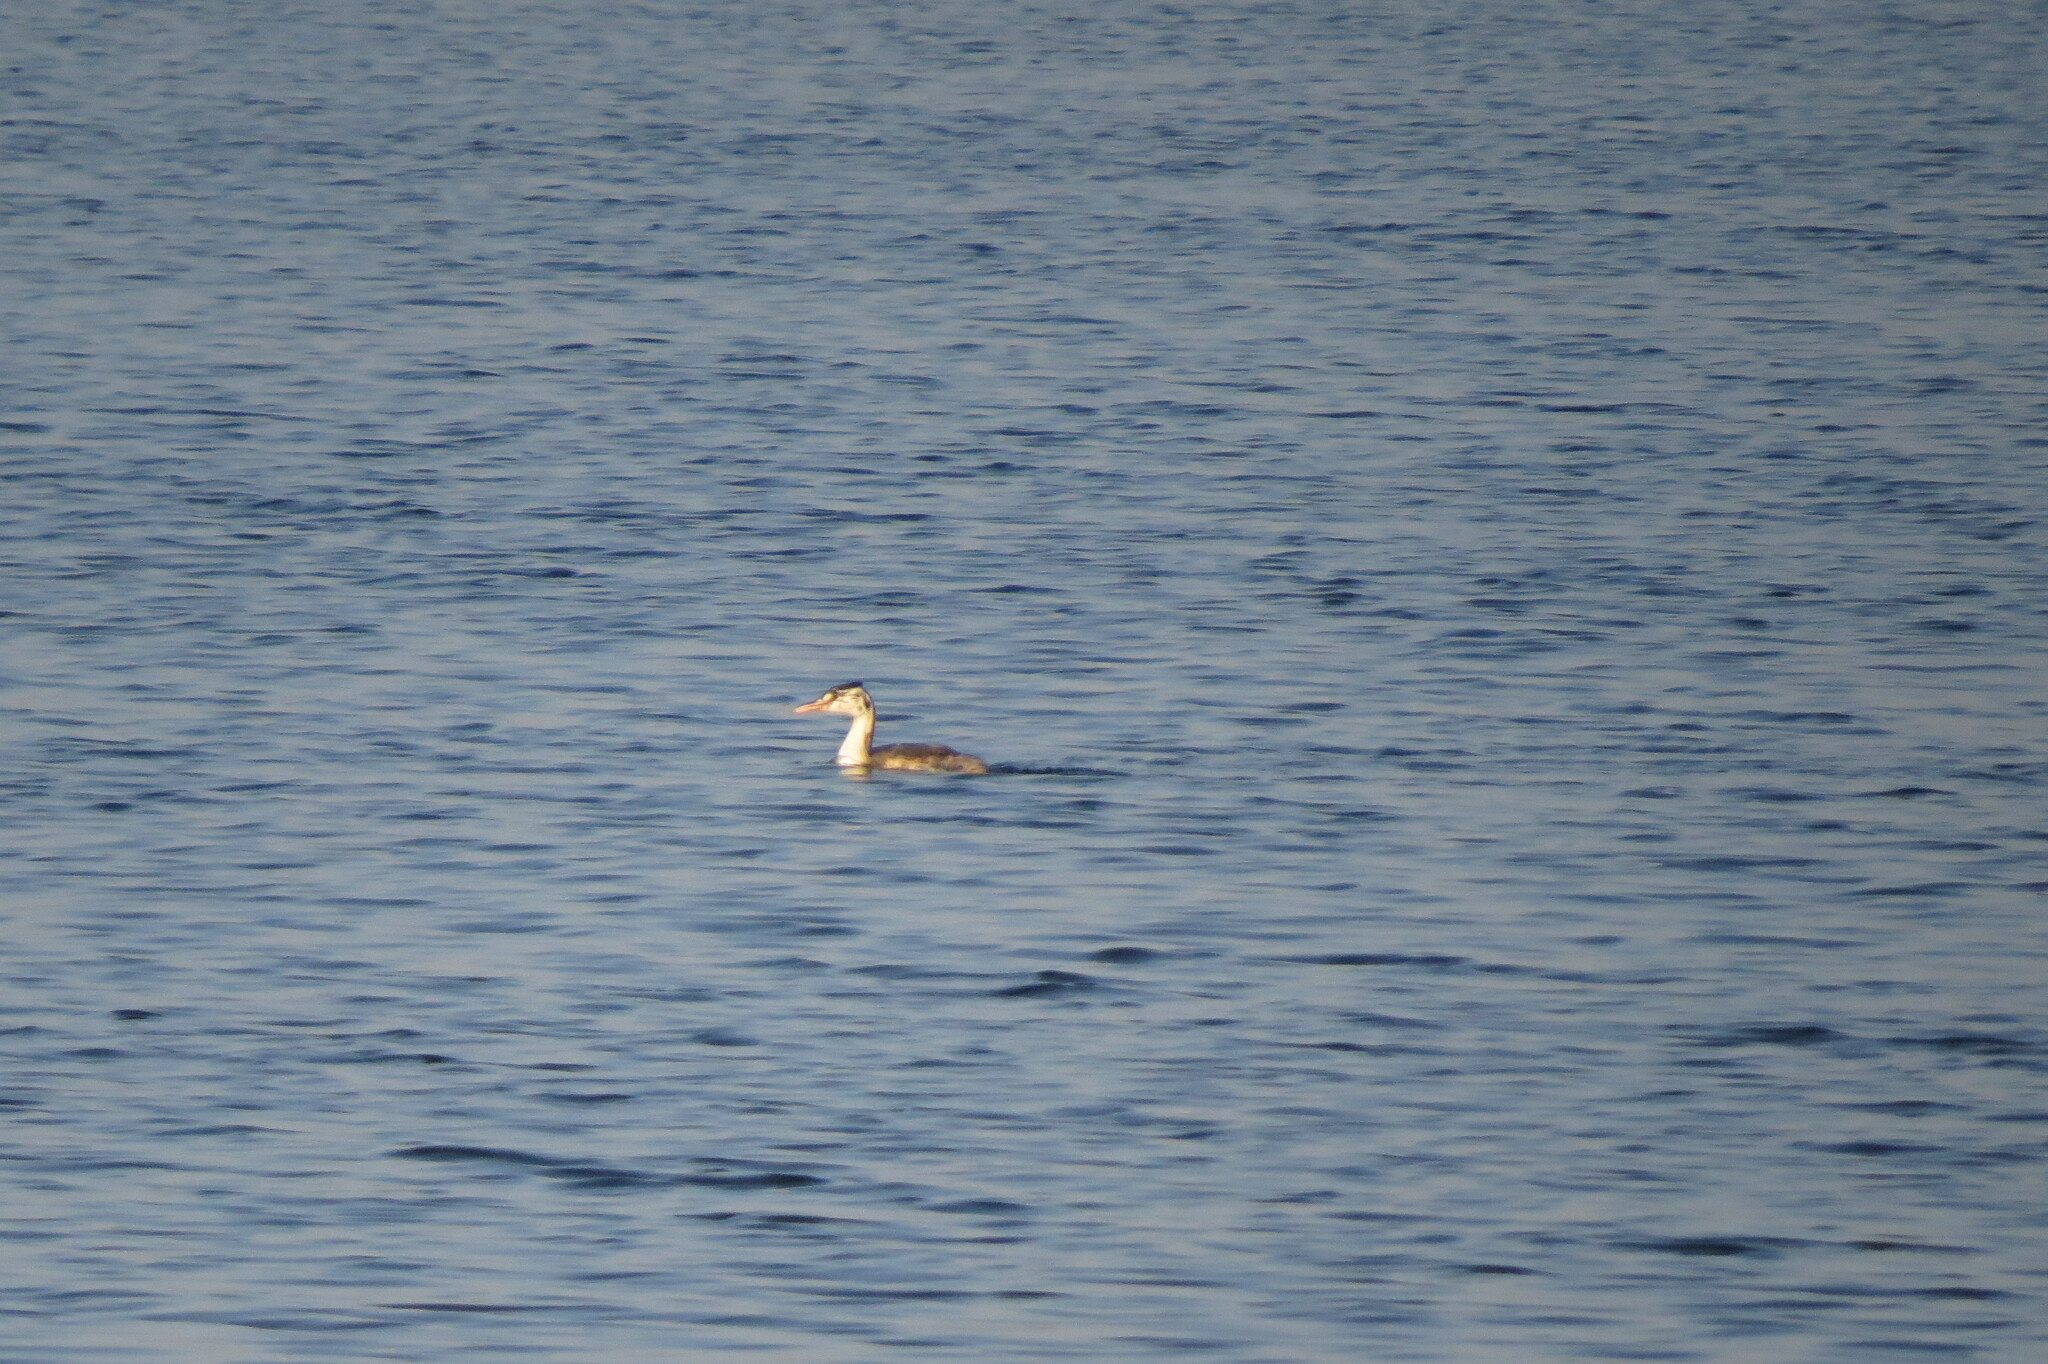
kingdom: Animalia
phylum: Chordata
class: Aves
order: Podicipediformes
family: Podicipedidae
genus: Podiceps
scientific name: Podiceps cristatus
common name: Great crested grebe
